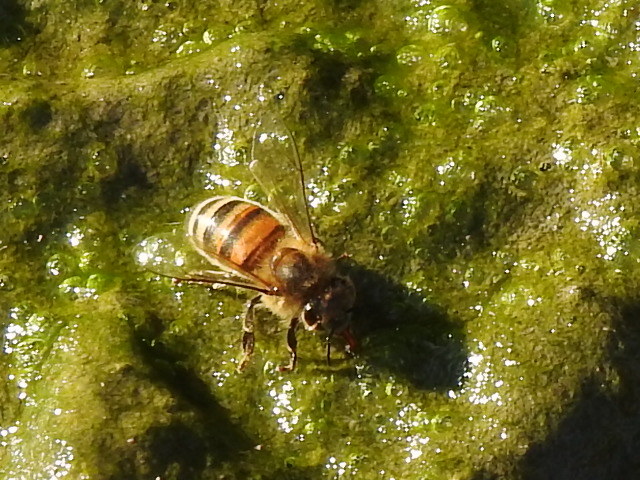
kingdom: Animalia
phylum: Arthropoda
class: Insecta
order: Hymenoptera
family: Apidae
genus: Apis
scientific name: Apis mellifera
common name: Honey bee
